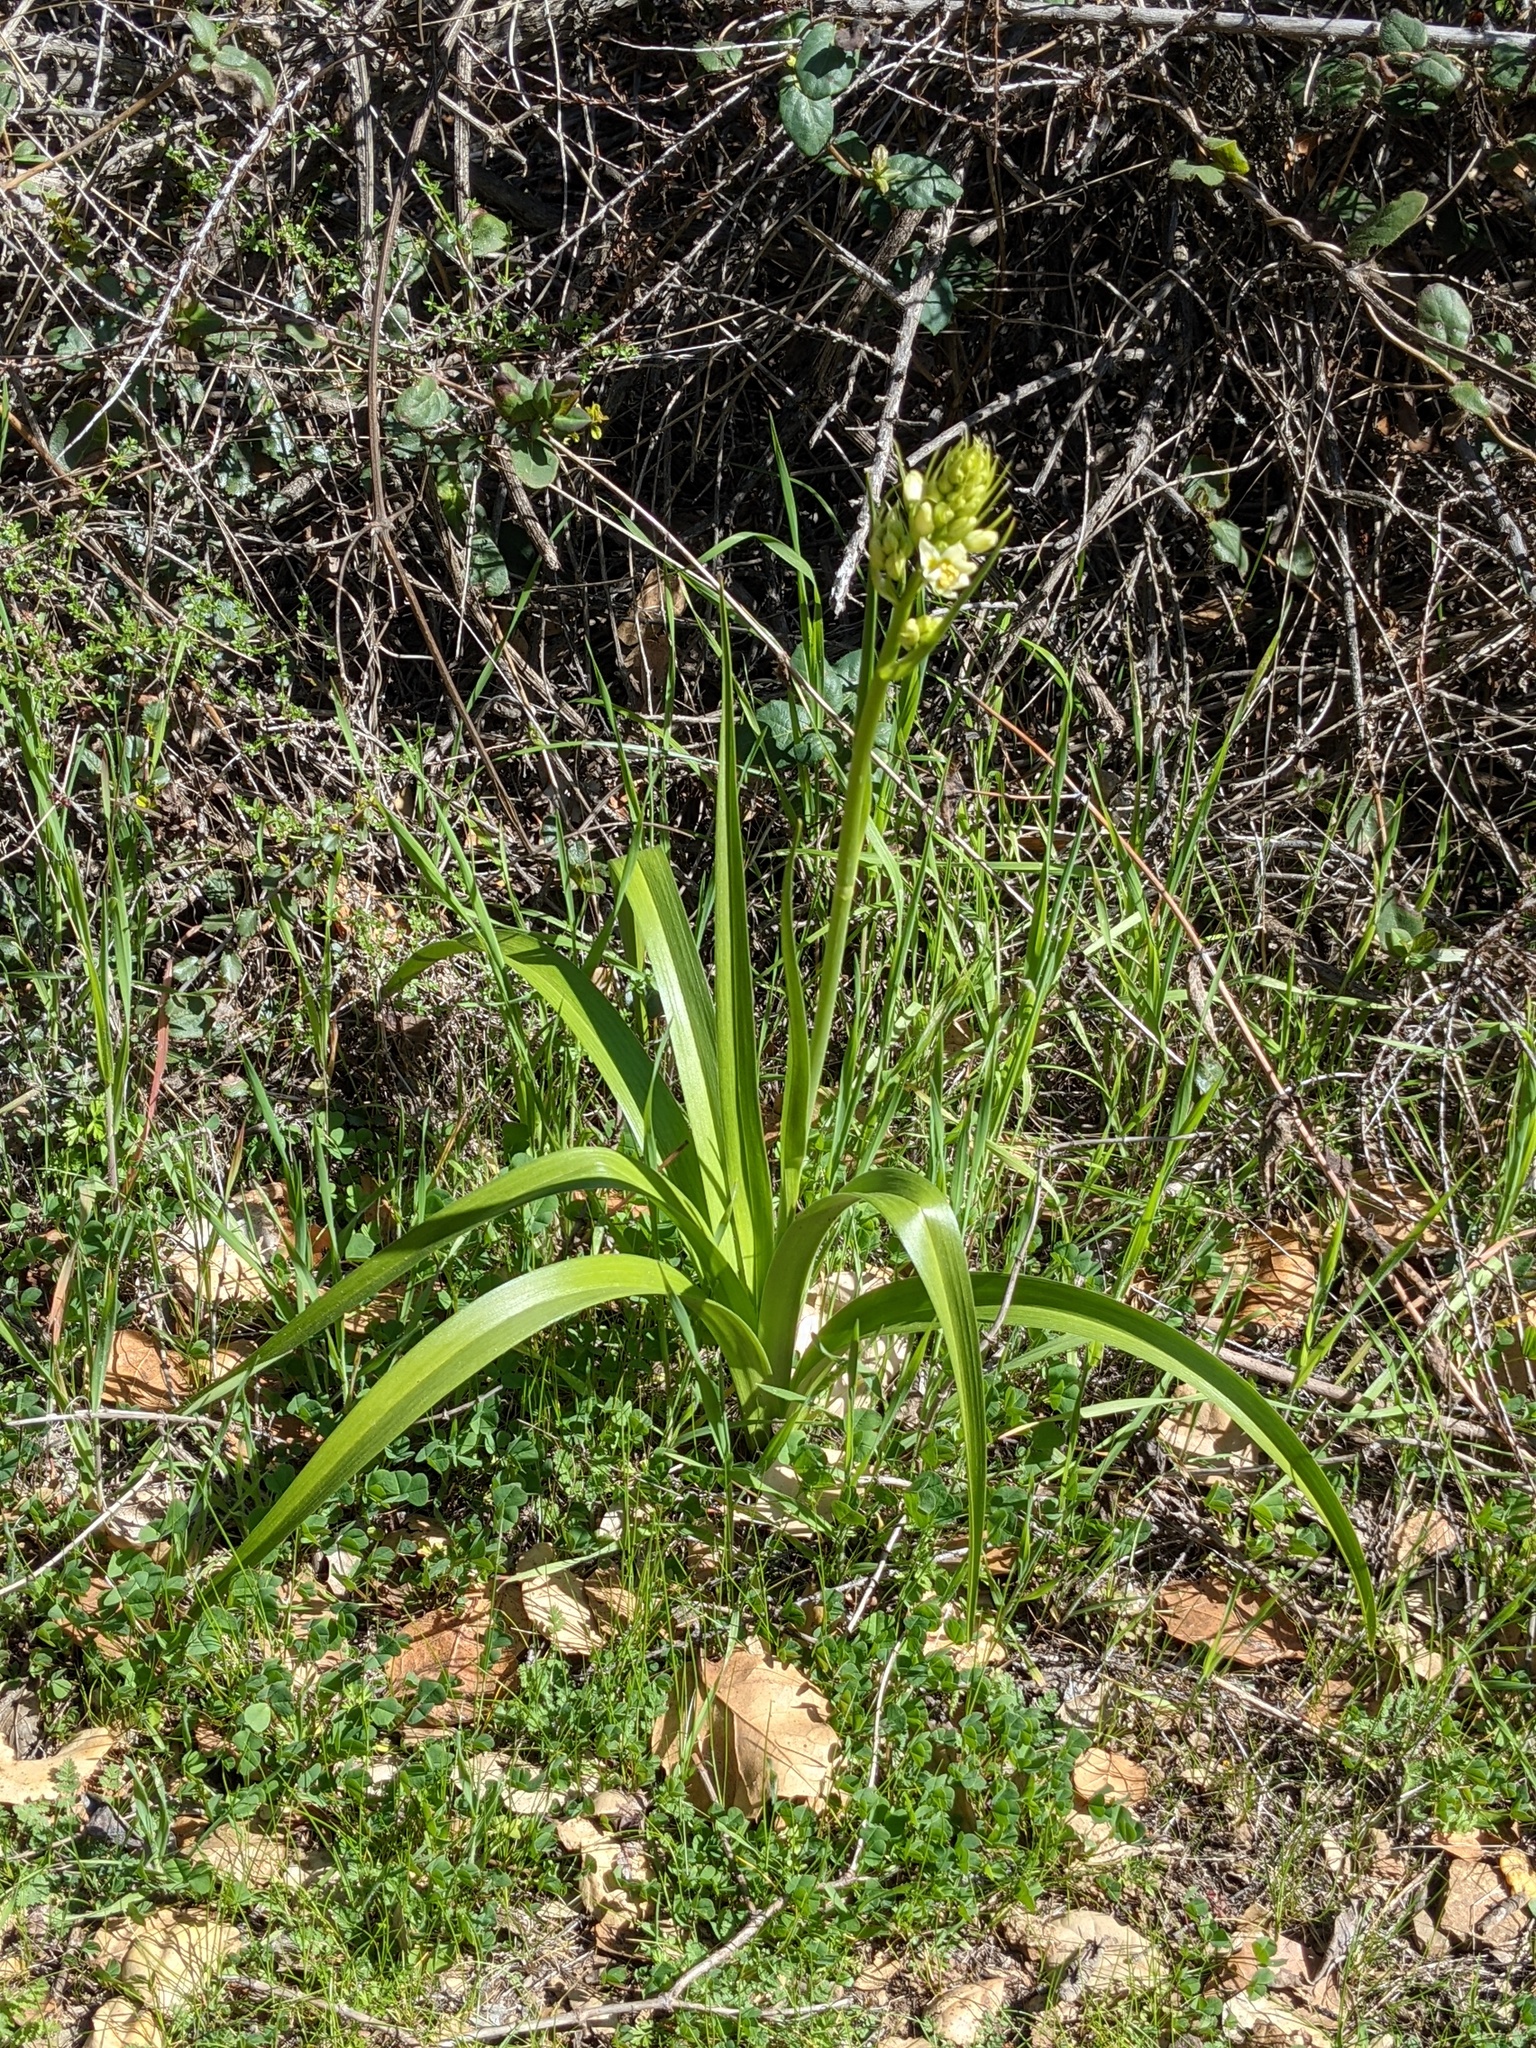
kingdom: Plantae
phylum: Tracheophyta
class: Liliopsida
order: Liliales
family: Melanthiaceae
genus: Toxicoscordion
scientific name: Toxicoscordion fremontii
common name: Fremont's death camas
